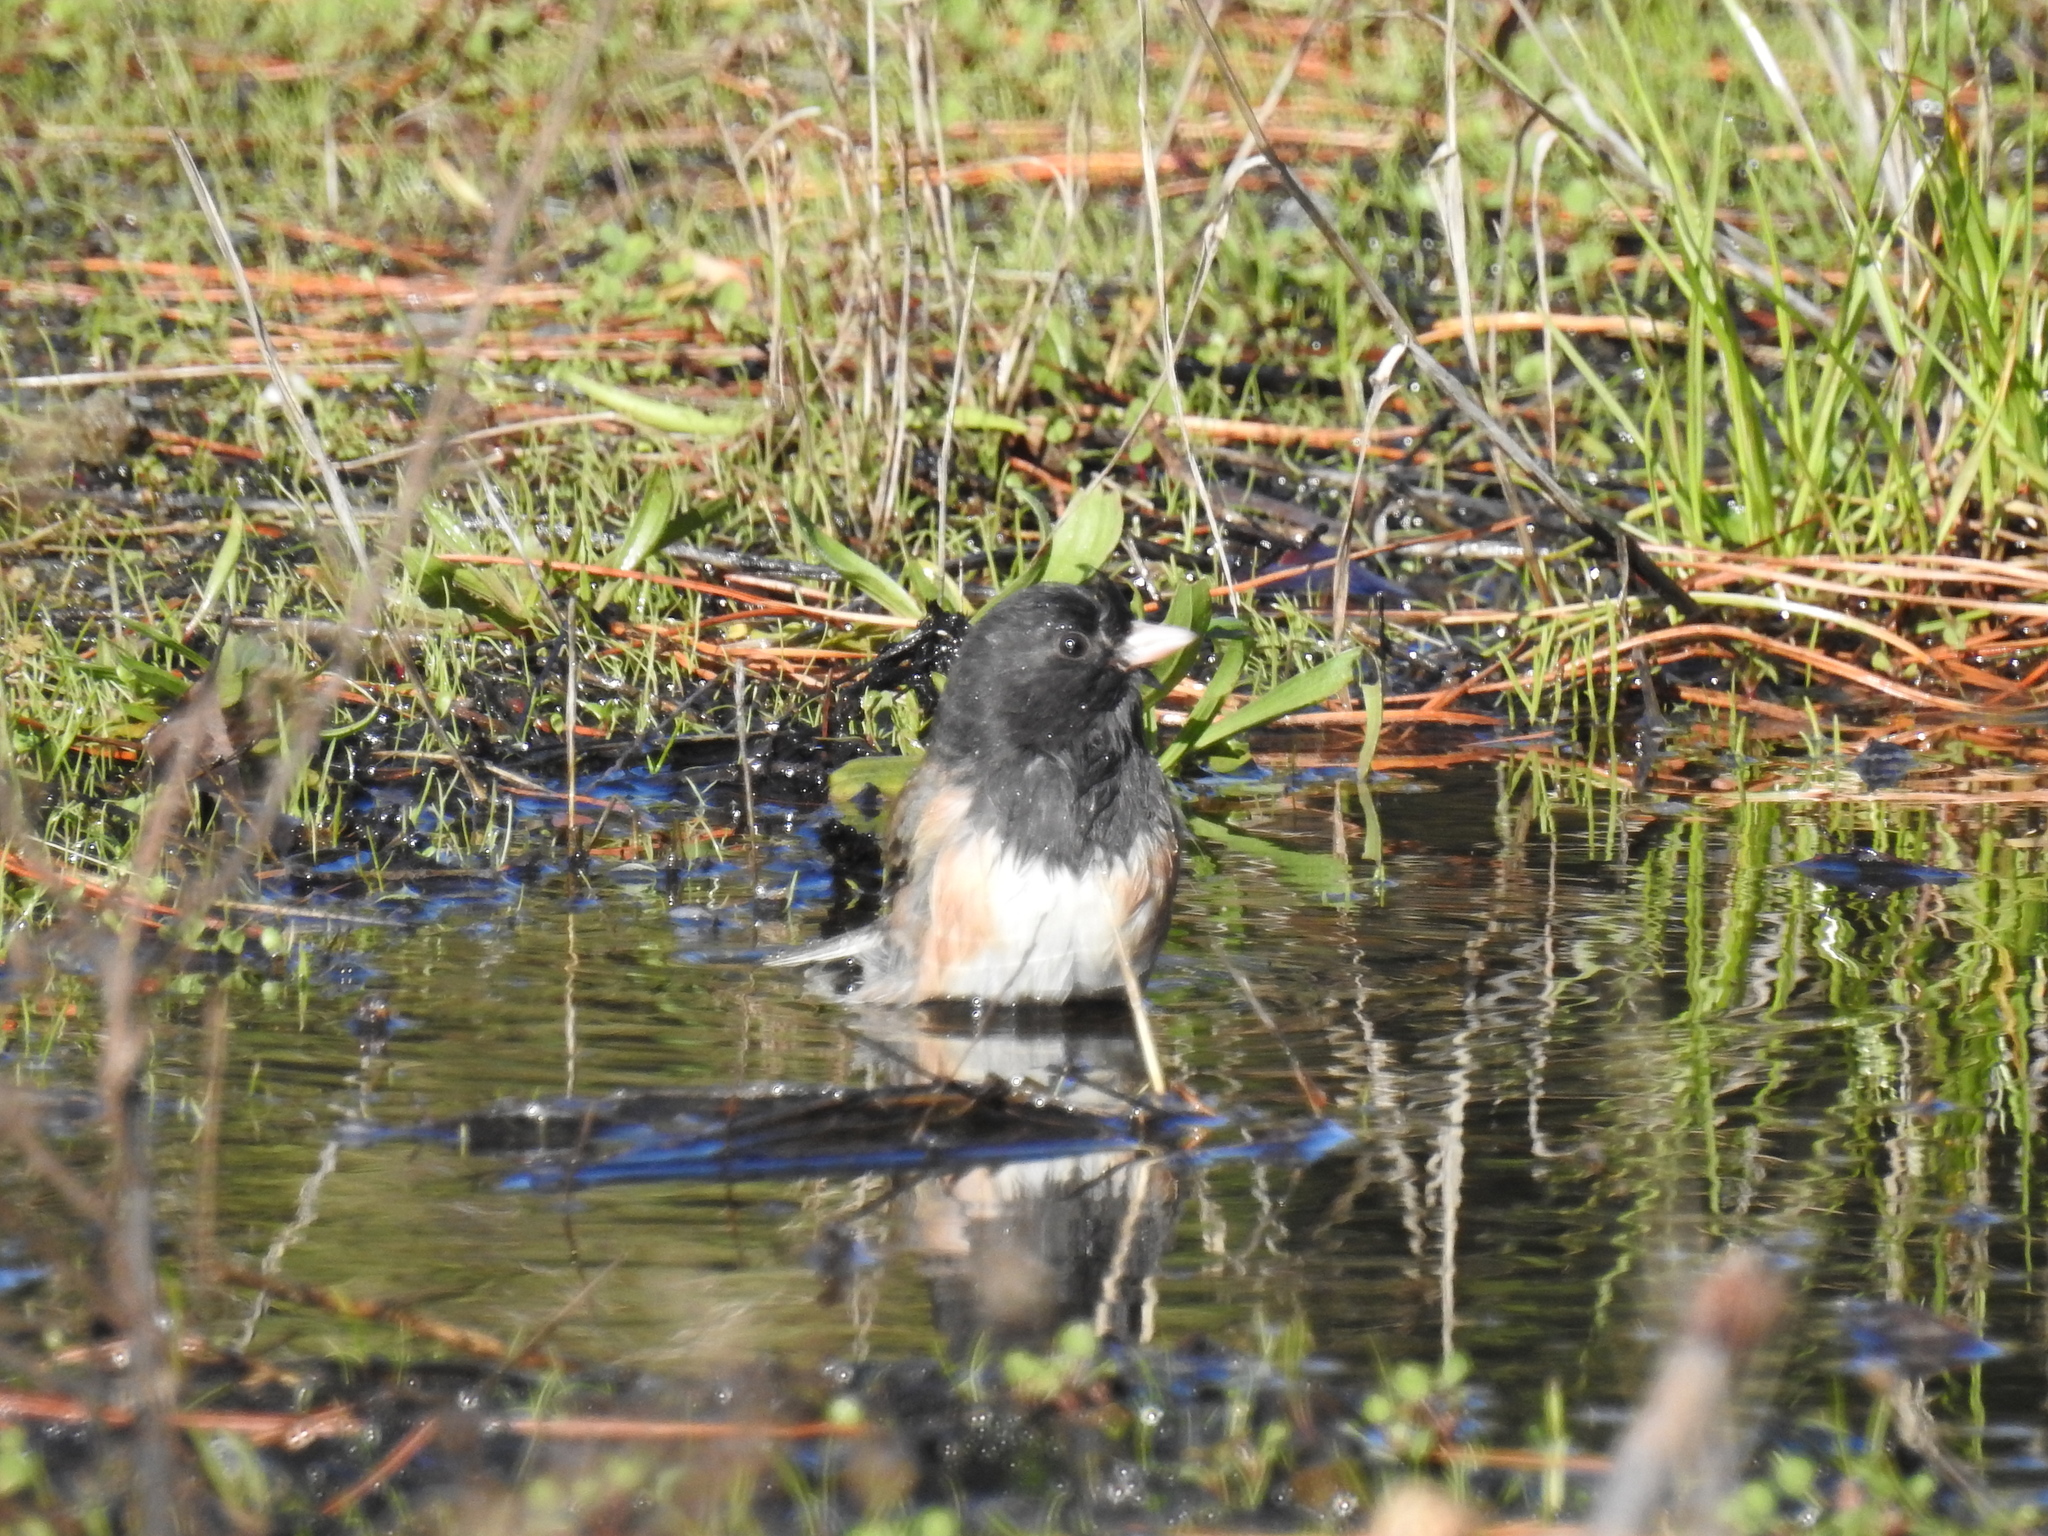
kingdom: Animalia
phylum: Chordata
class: Aves
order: Passeriformes
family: Passerellidae
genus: Junco
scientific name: Junco hyemalis
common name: Dark-eyed junco
